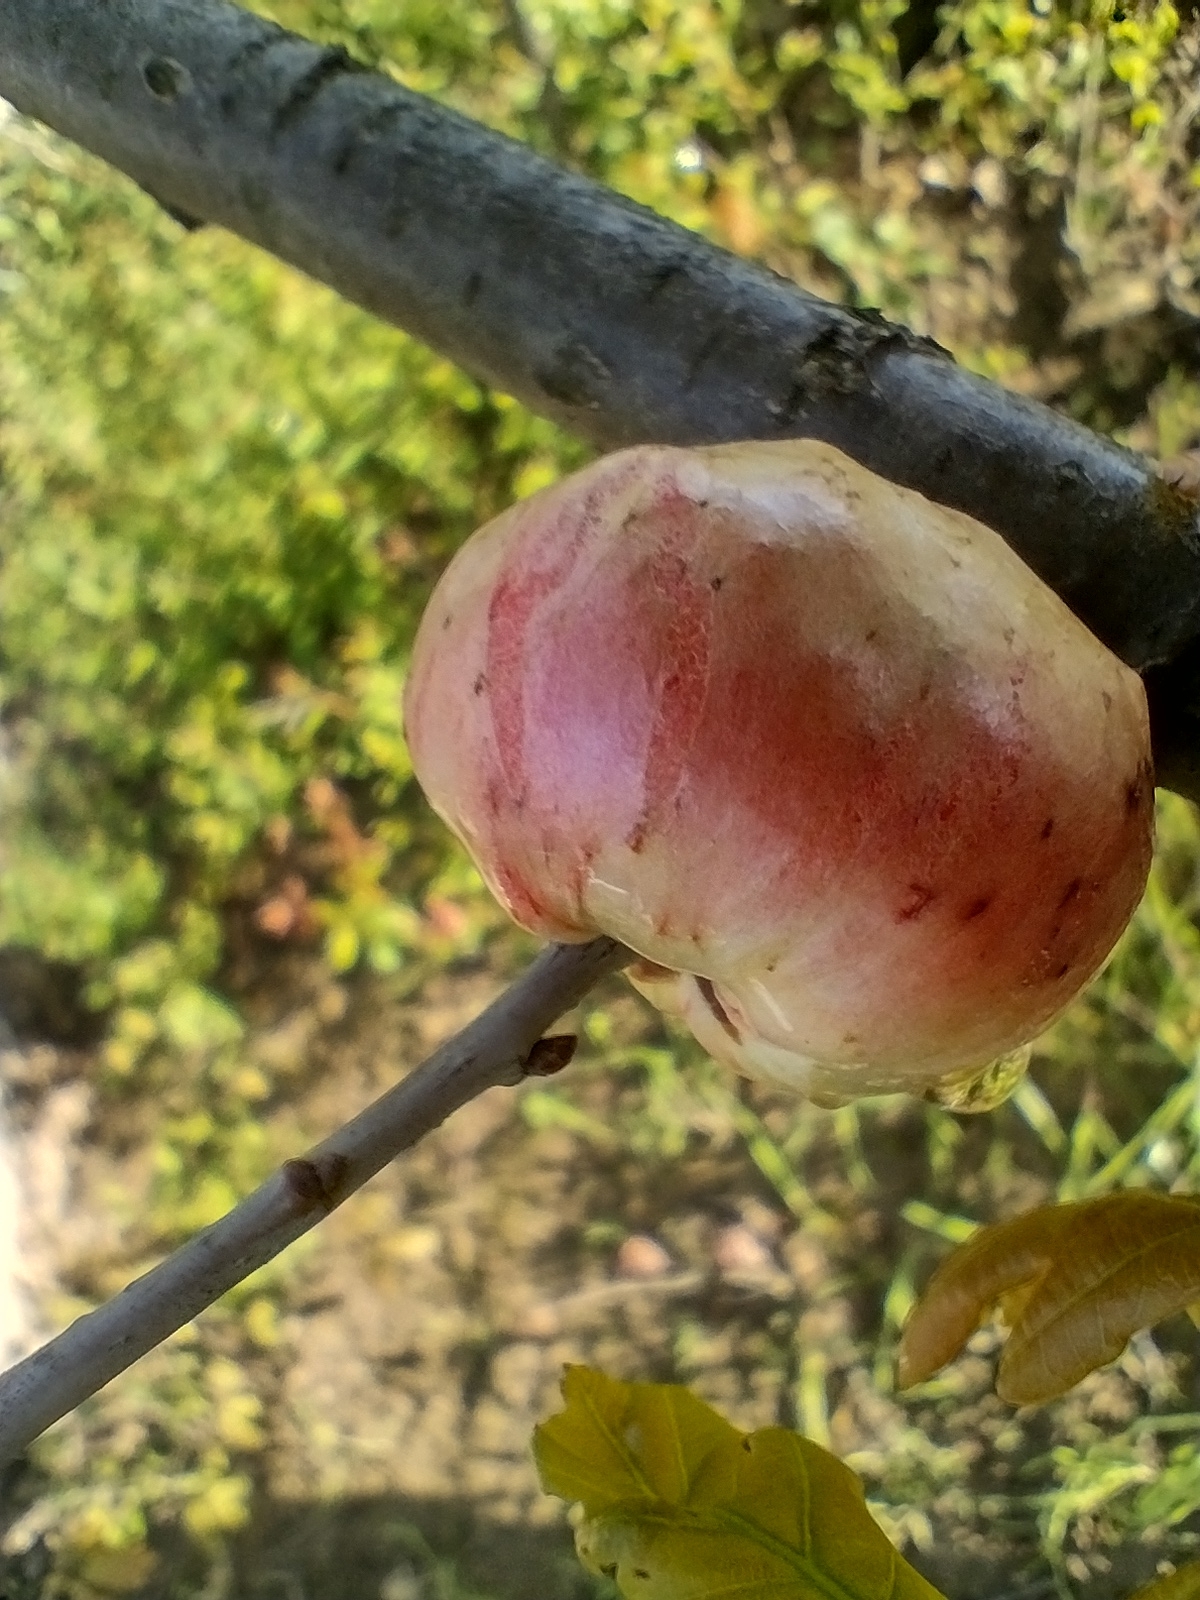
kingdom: Animalia
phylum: Arthropoda
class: Insecta
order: Hymenoptera
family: Cynipidae
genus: Biorhiza
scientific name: Biorhiza pallida
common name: Oak apple
